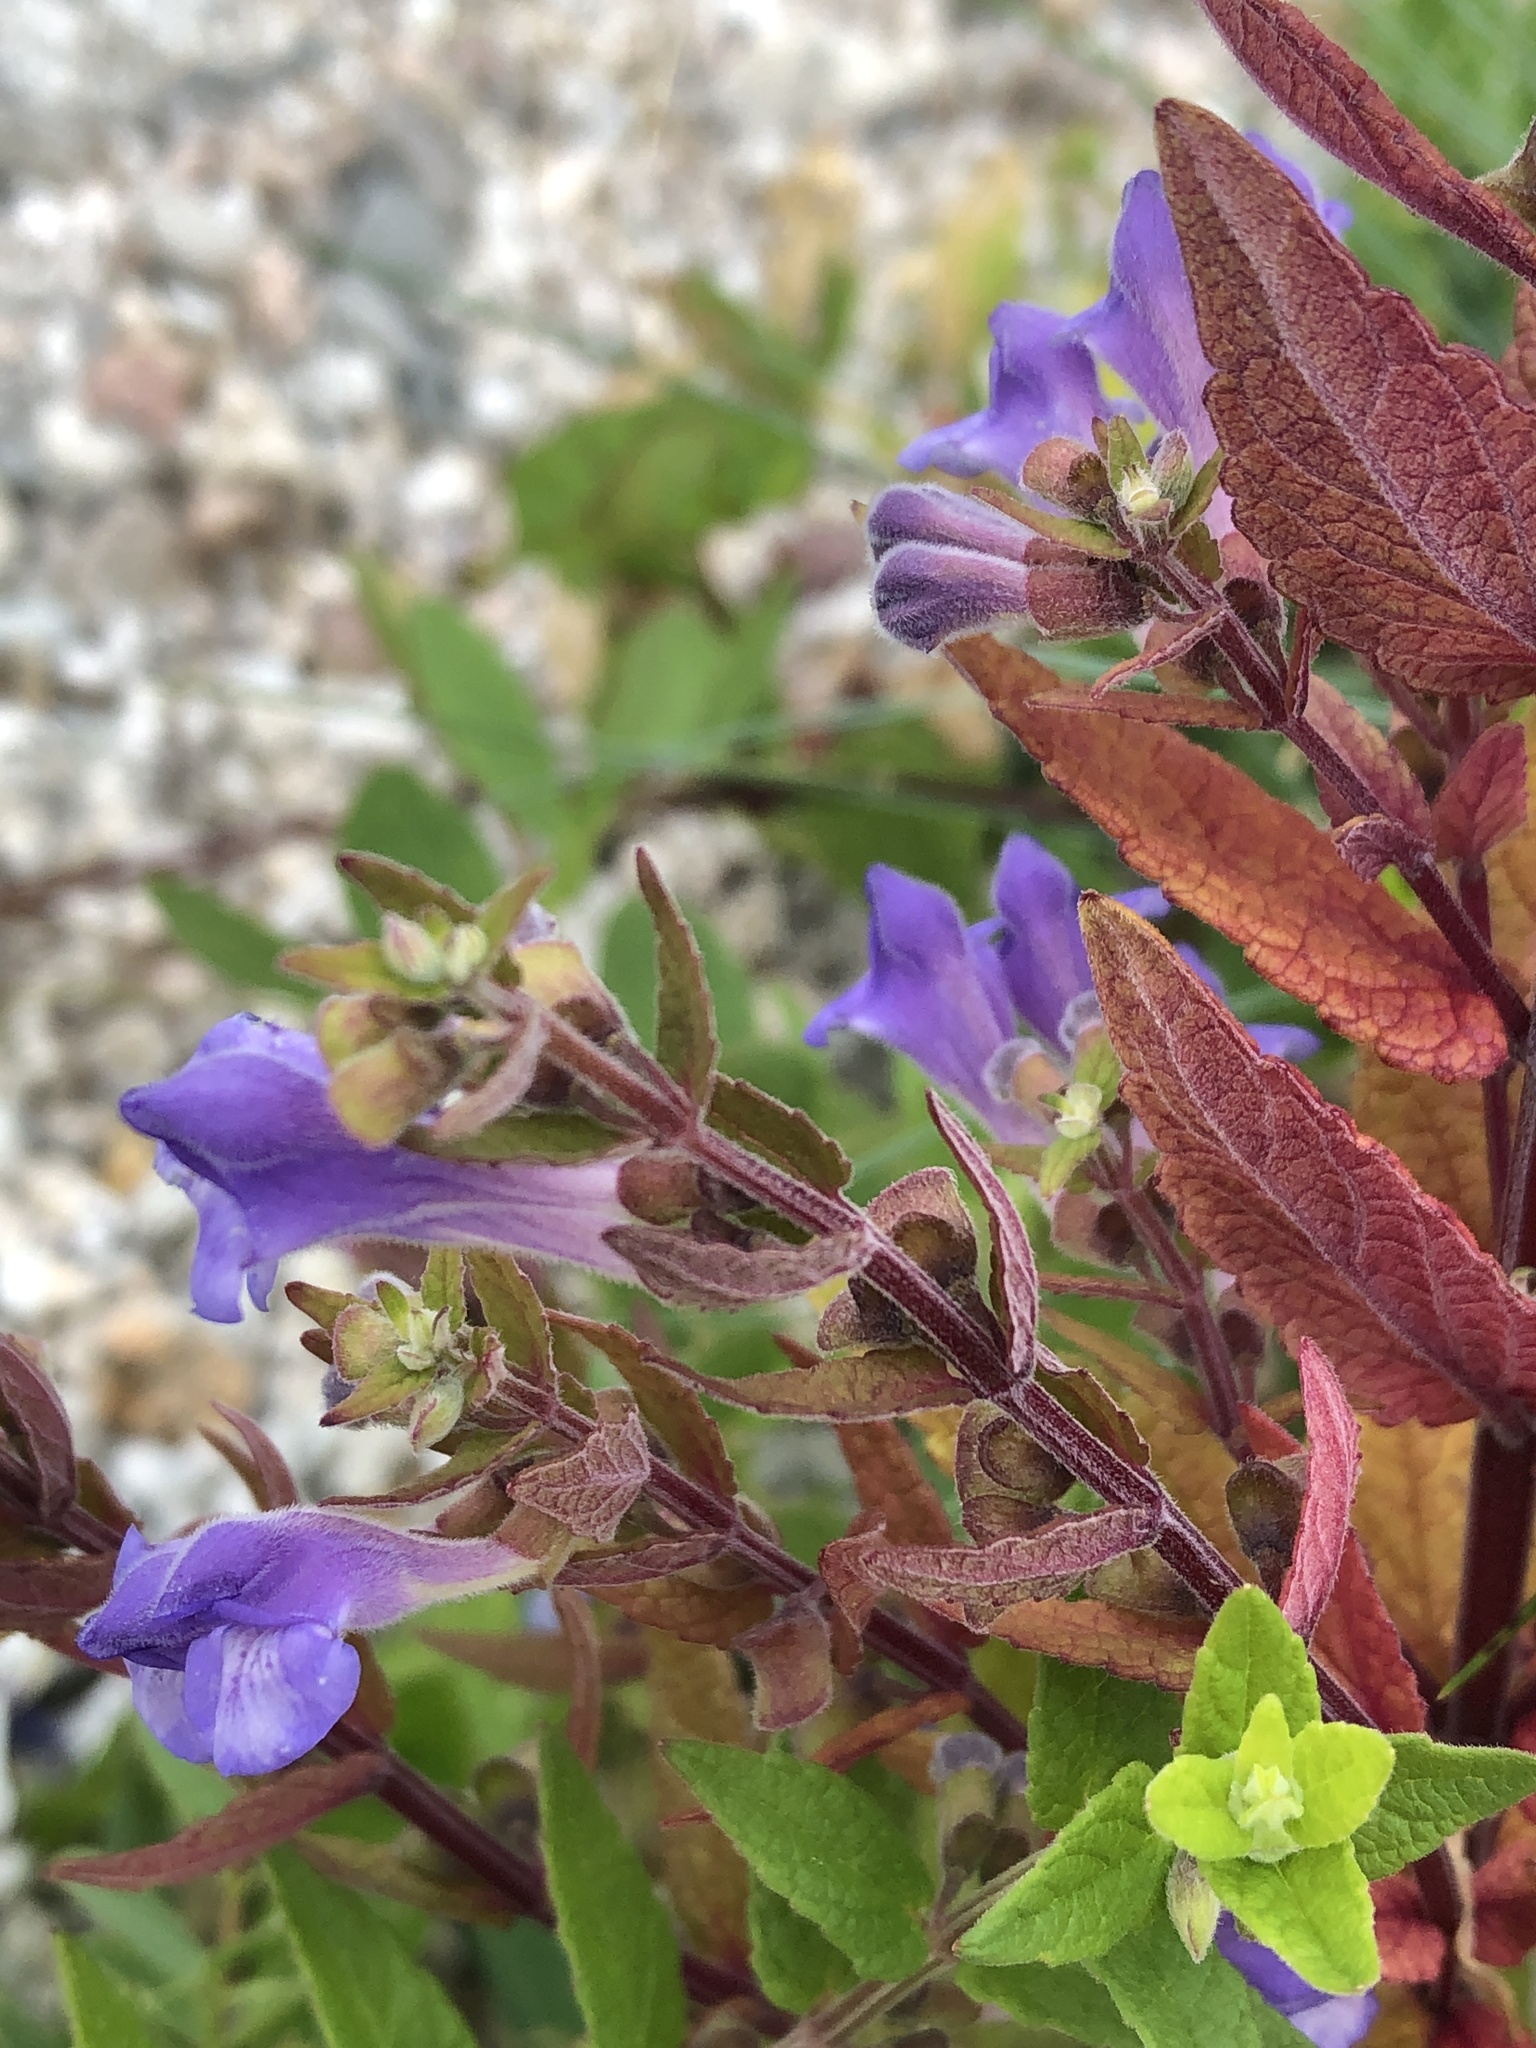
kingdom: Plantae
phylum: Tracheophyta
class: Magnoliopsida
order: Lamiales
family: Lamiaceae
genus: Scutellaria
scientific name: Scutellaria galericulata
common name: Skullcap
